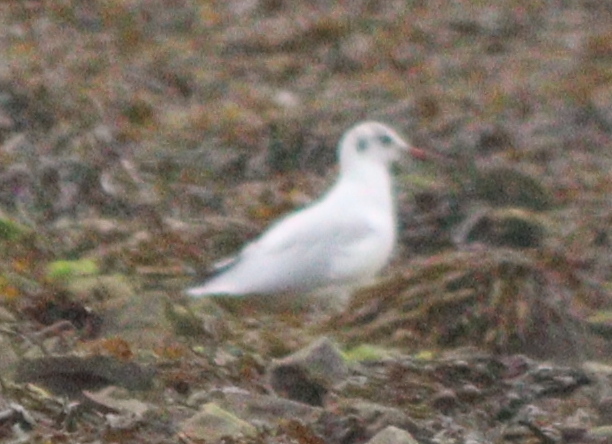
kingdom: Animalia
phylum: Chordata
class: Aves
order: Charadriiformes
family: Laridae
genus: Chroicocephalus
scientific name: Chroicocephalus ridibundus
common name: Black-headed gull
